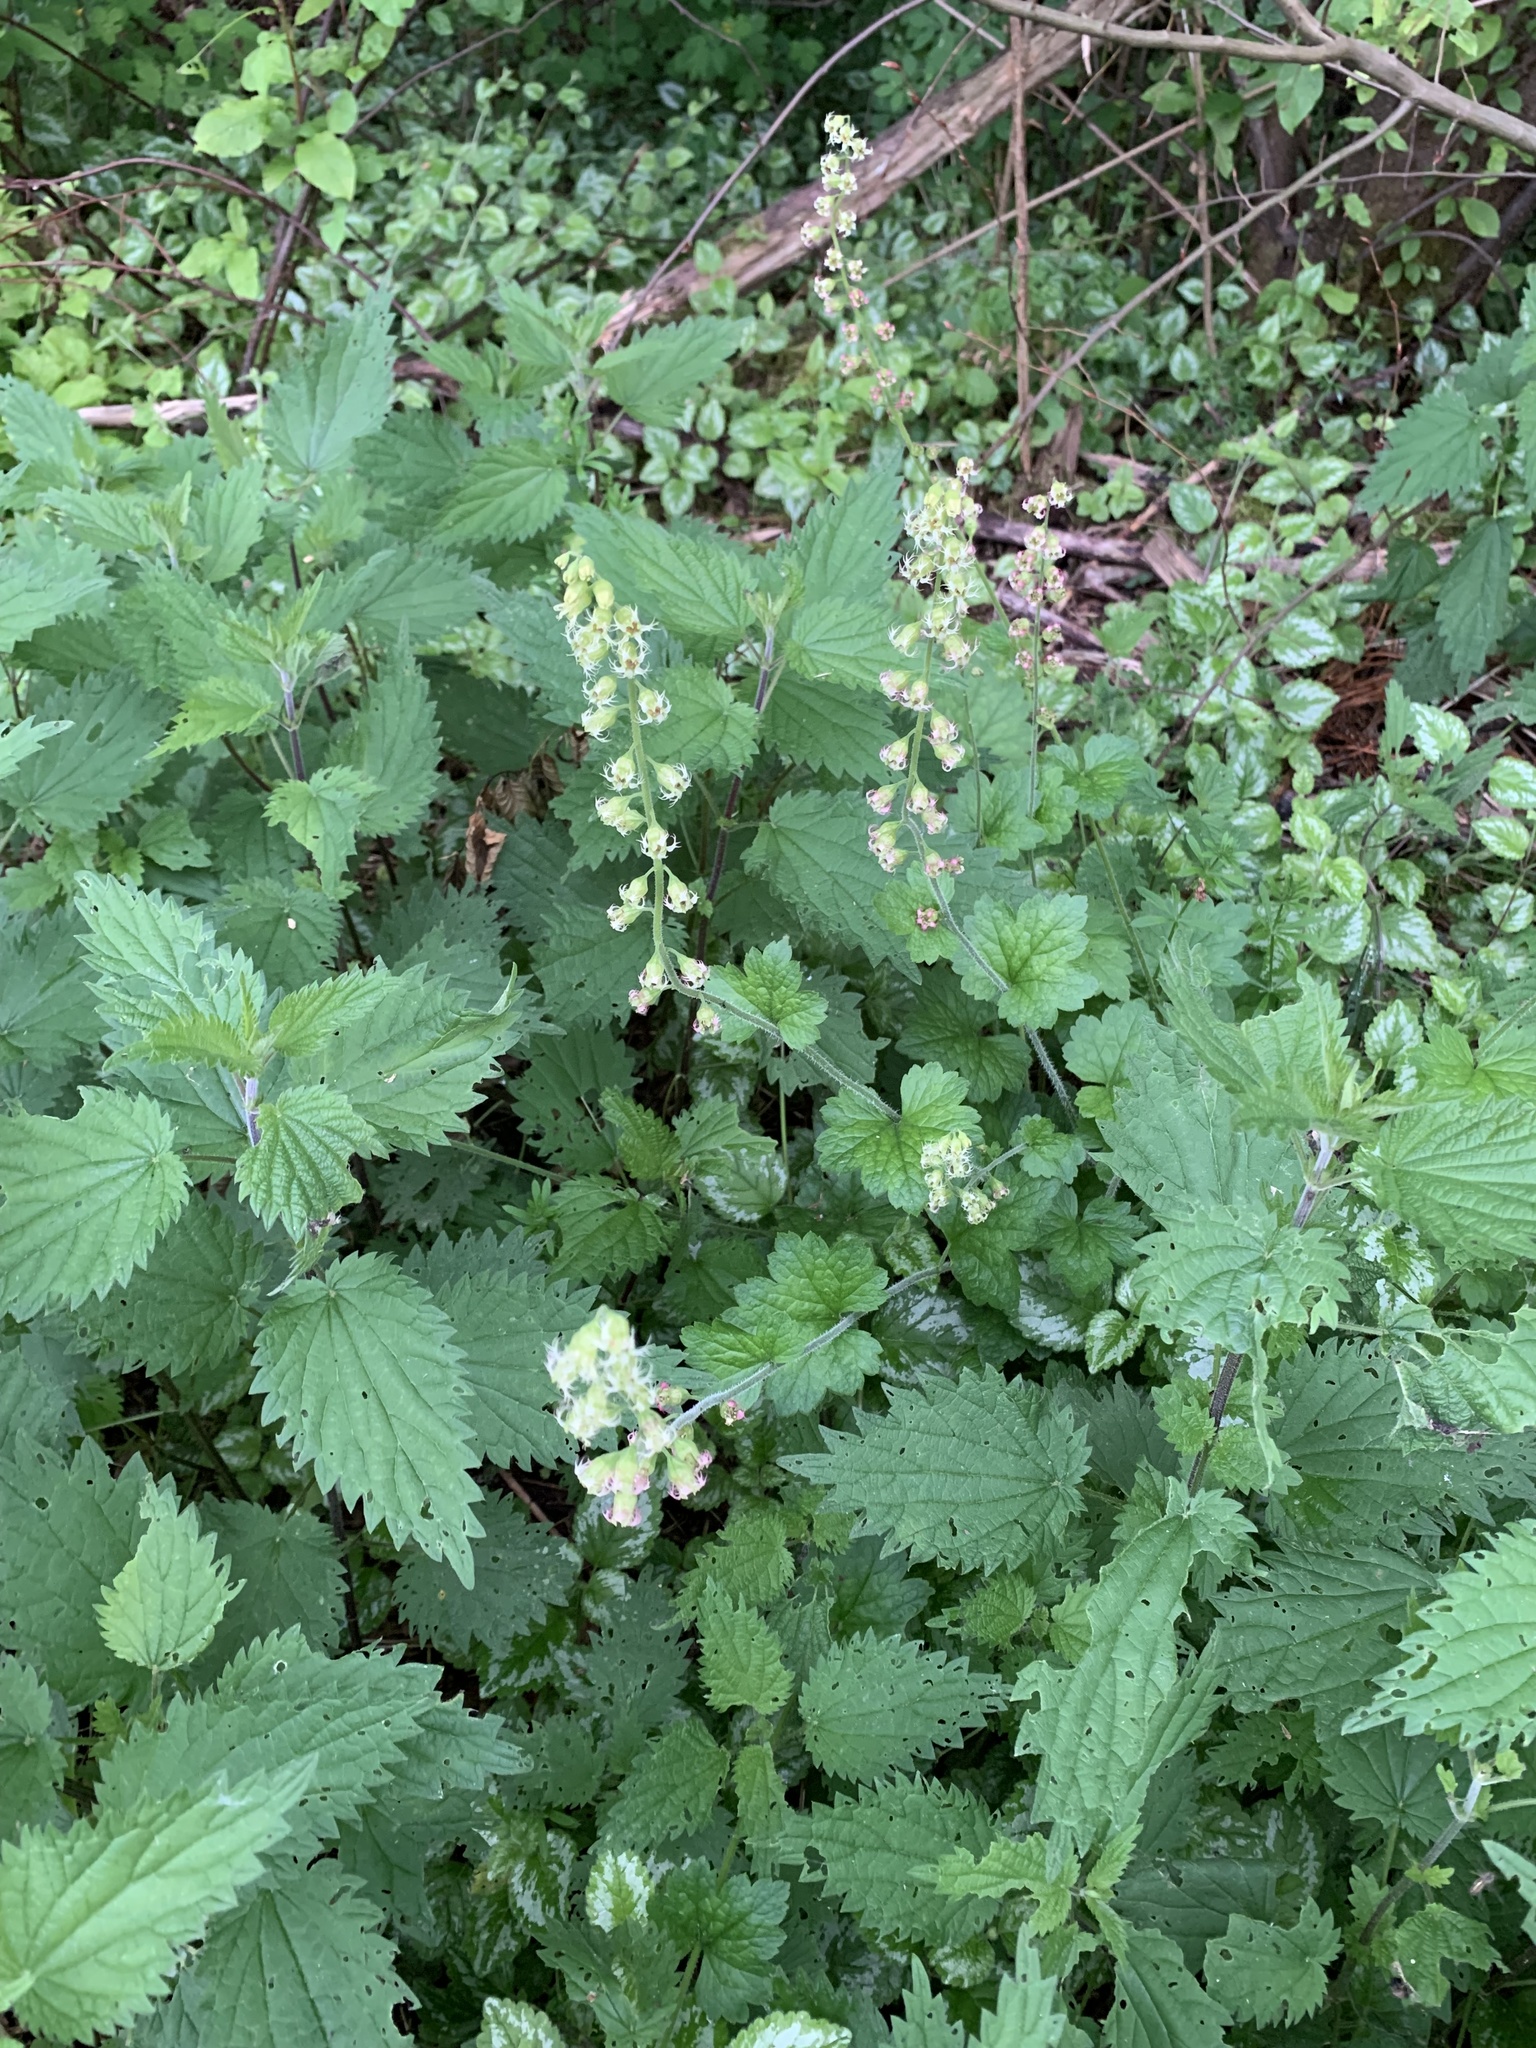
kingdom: Plantae
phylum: Tracheophyta
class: Magnoliopsida
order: Saxifragales
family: Saxifragaceae
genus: Tellima
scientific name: Tellima grandiflora
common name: Fringecups
